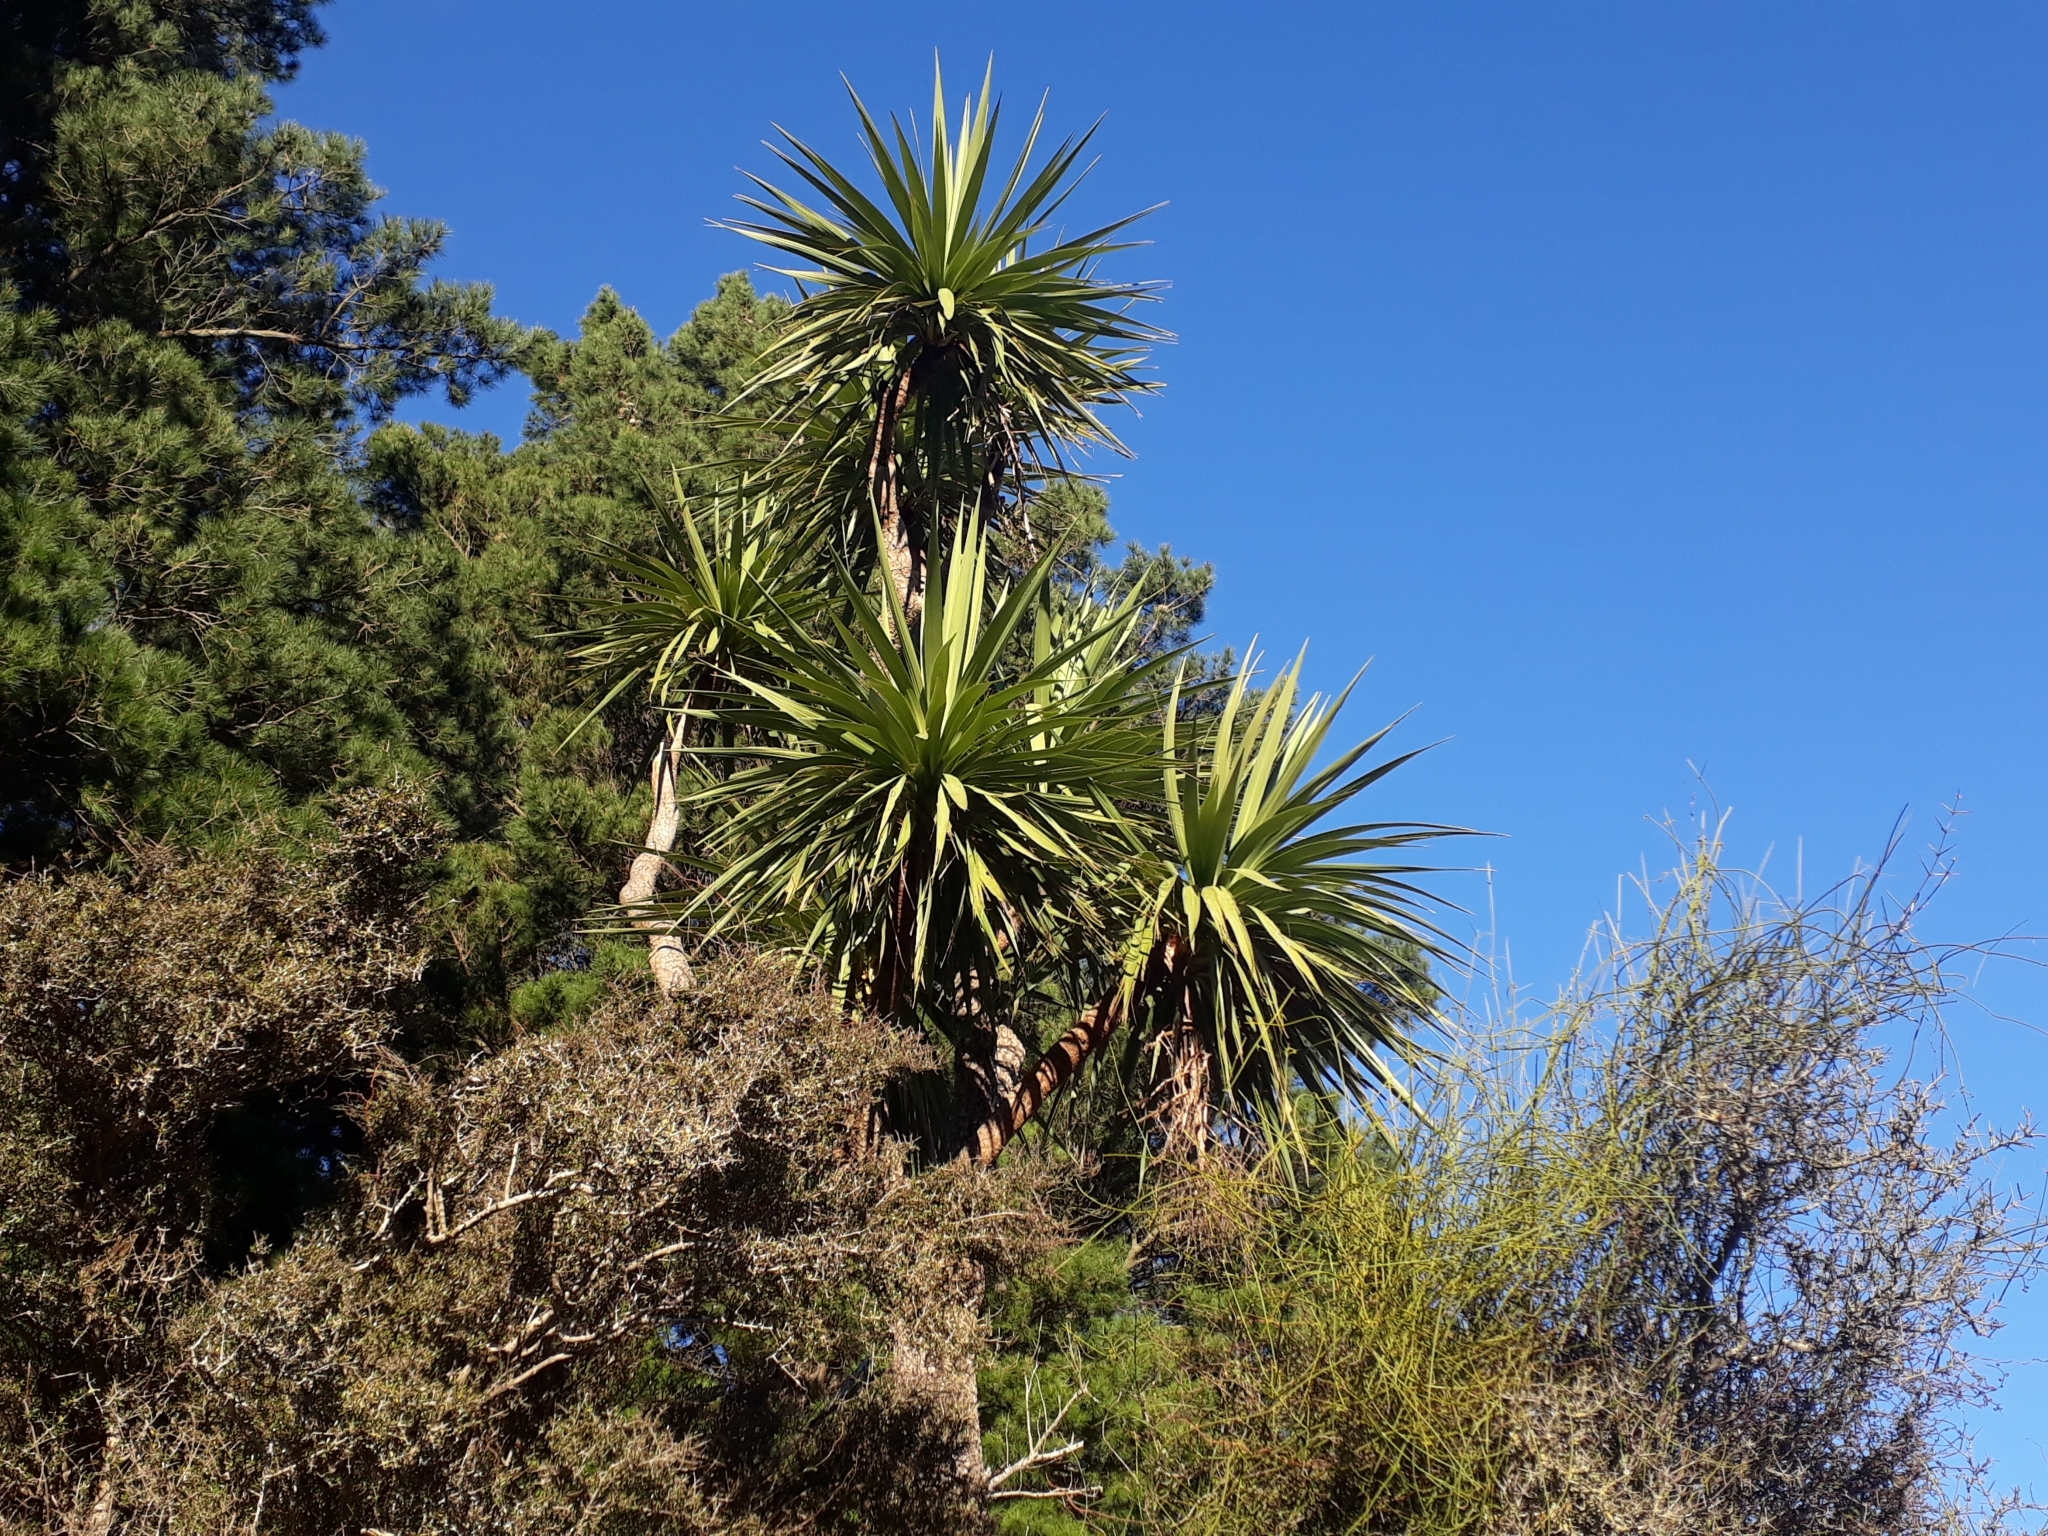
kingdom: Plantae
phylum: Tracheophyta
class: Liliopsida
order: Asparagales
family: Asparagaceae
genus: Cordyline
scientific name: Cordyline australis
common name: Cabbage-palm
